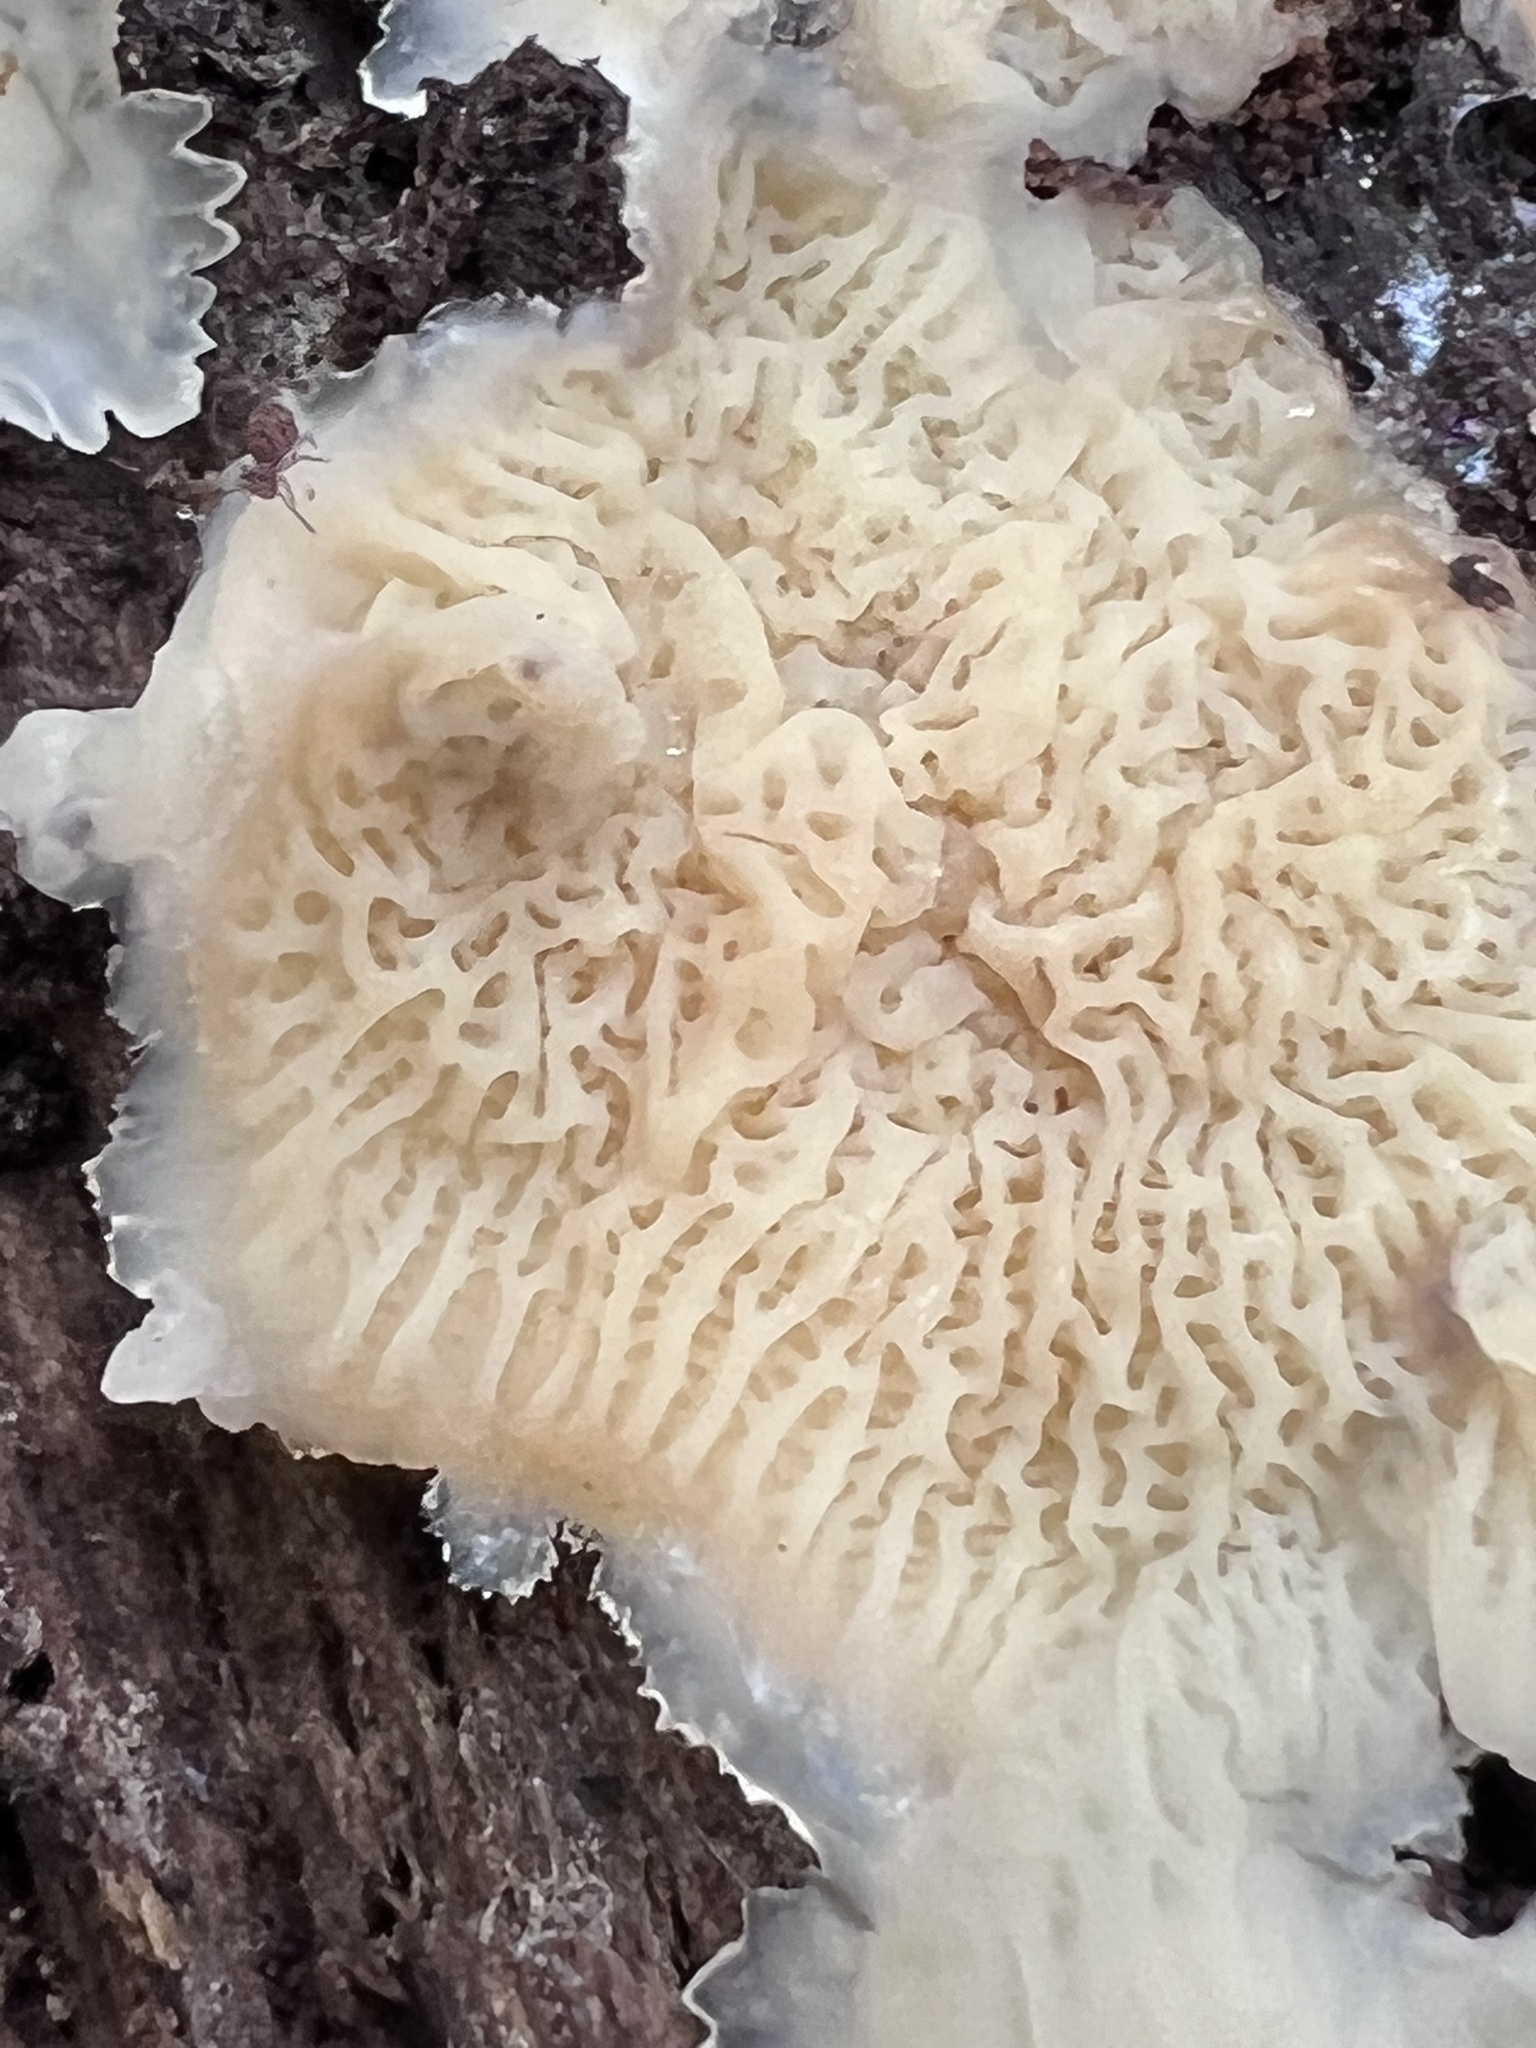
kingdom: Fungi
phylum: Basidiomycota
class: Agaricomycetes
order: Polyporales
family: Meruliaceae
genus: Phlebia
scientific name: Phlebia tremellosa
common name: Jelly rot
